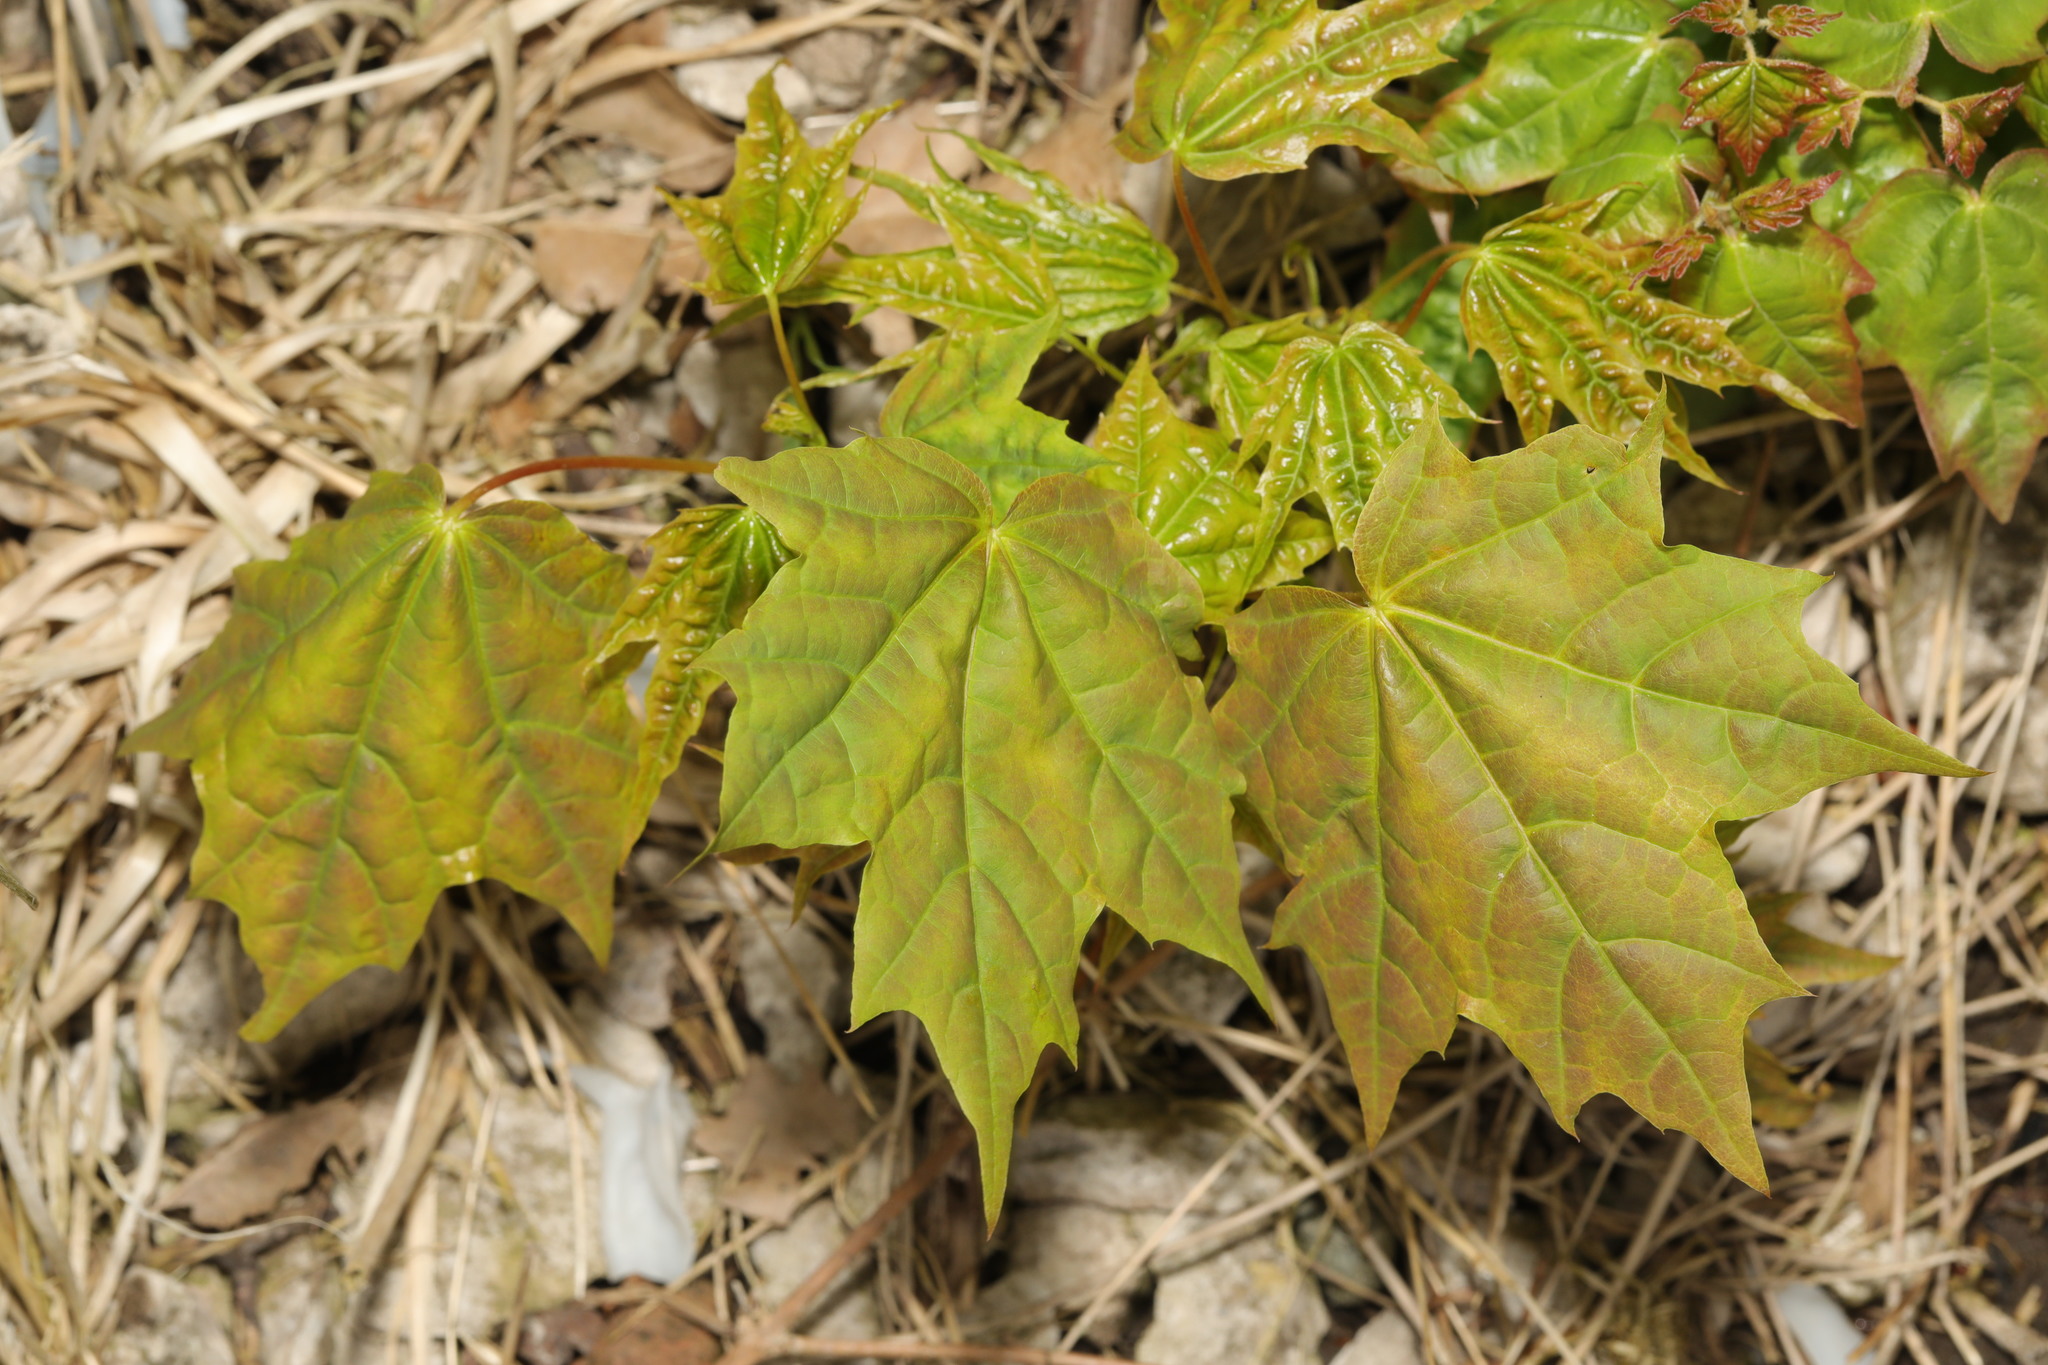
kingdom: Plantae
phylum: Tracheophyta
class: Magnoliopsida
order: Sapindales
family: Sapindaceae
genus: Acer
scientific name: Acer platanoides
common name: Norway maple
